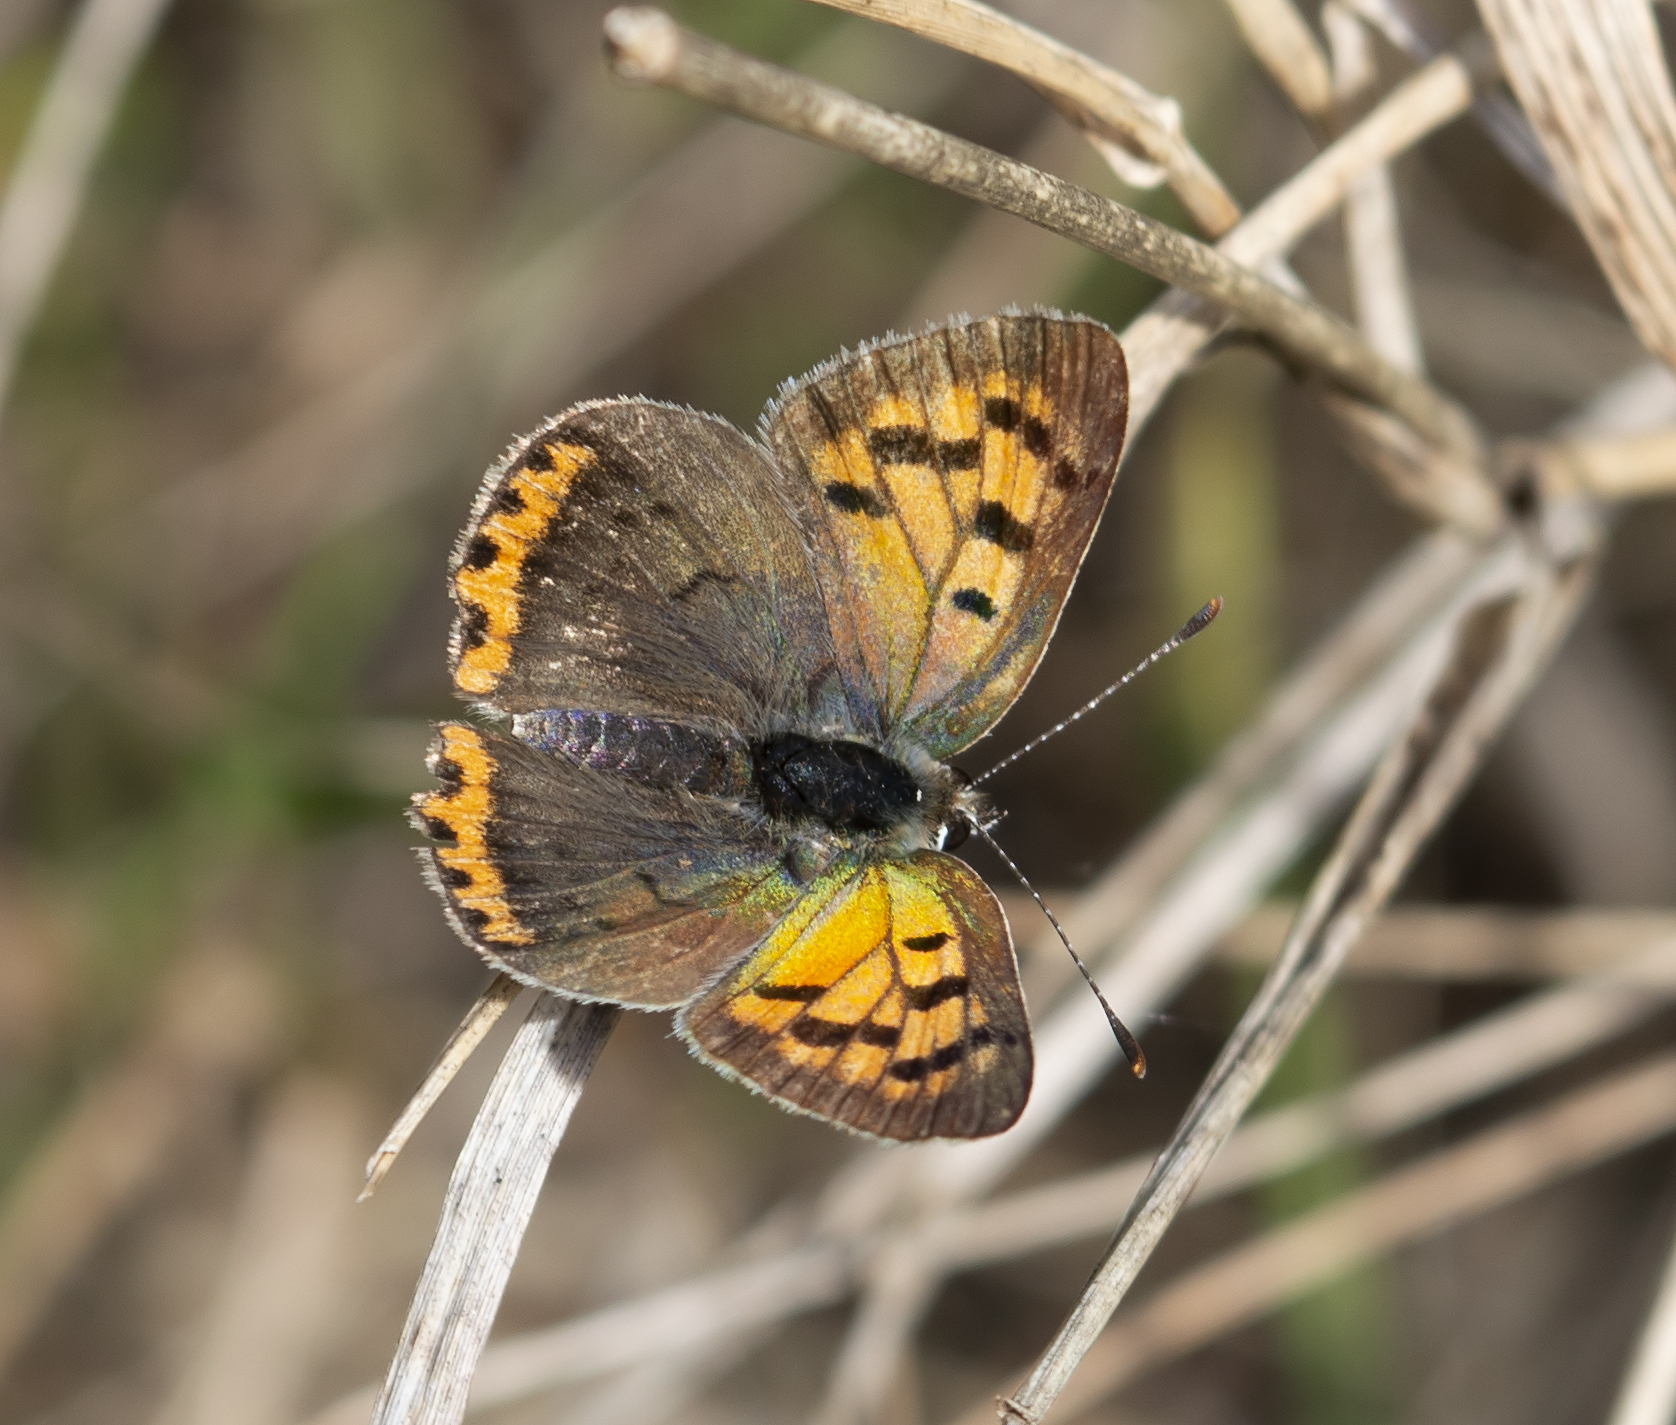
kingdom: Animalia
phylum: Arthropoda
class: Insecta
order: Lepidoptera
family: Lycaenidae
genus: Lycaena
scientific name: Lycaena phlaeas
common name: Small copper
